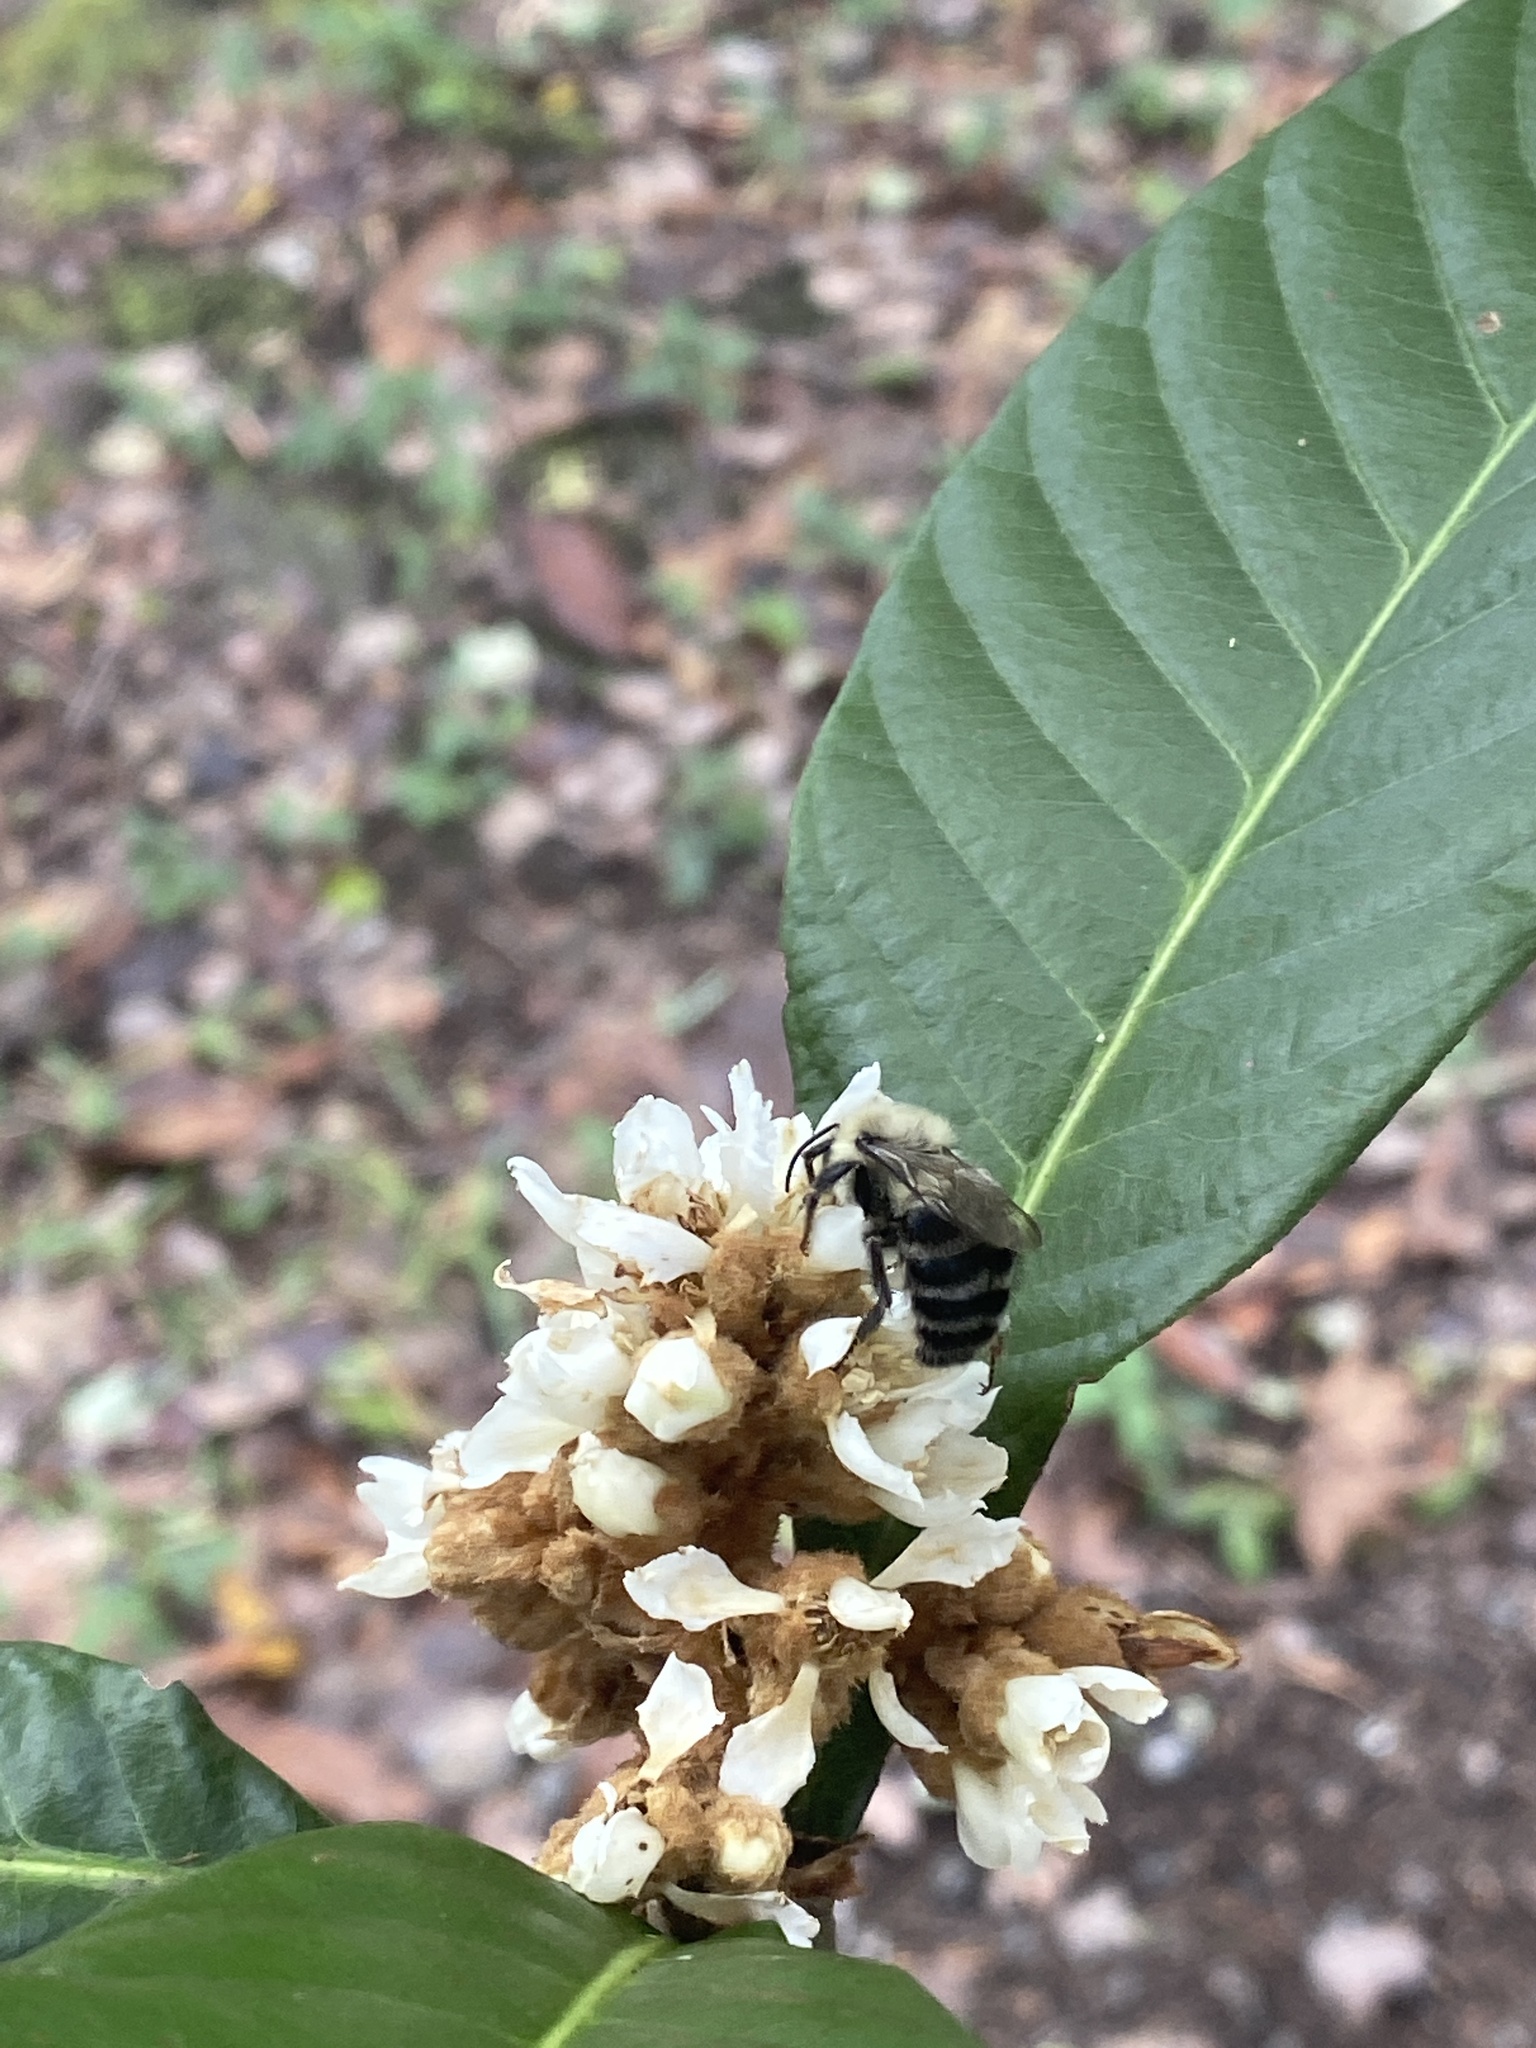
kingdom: Animalia
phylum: Arthropoda
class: Insecta
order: Hymenoptera
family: Apidae
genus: Bombus
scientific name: Bombus impatiens
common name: Common eastern bumble bee
